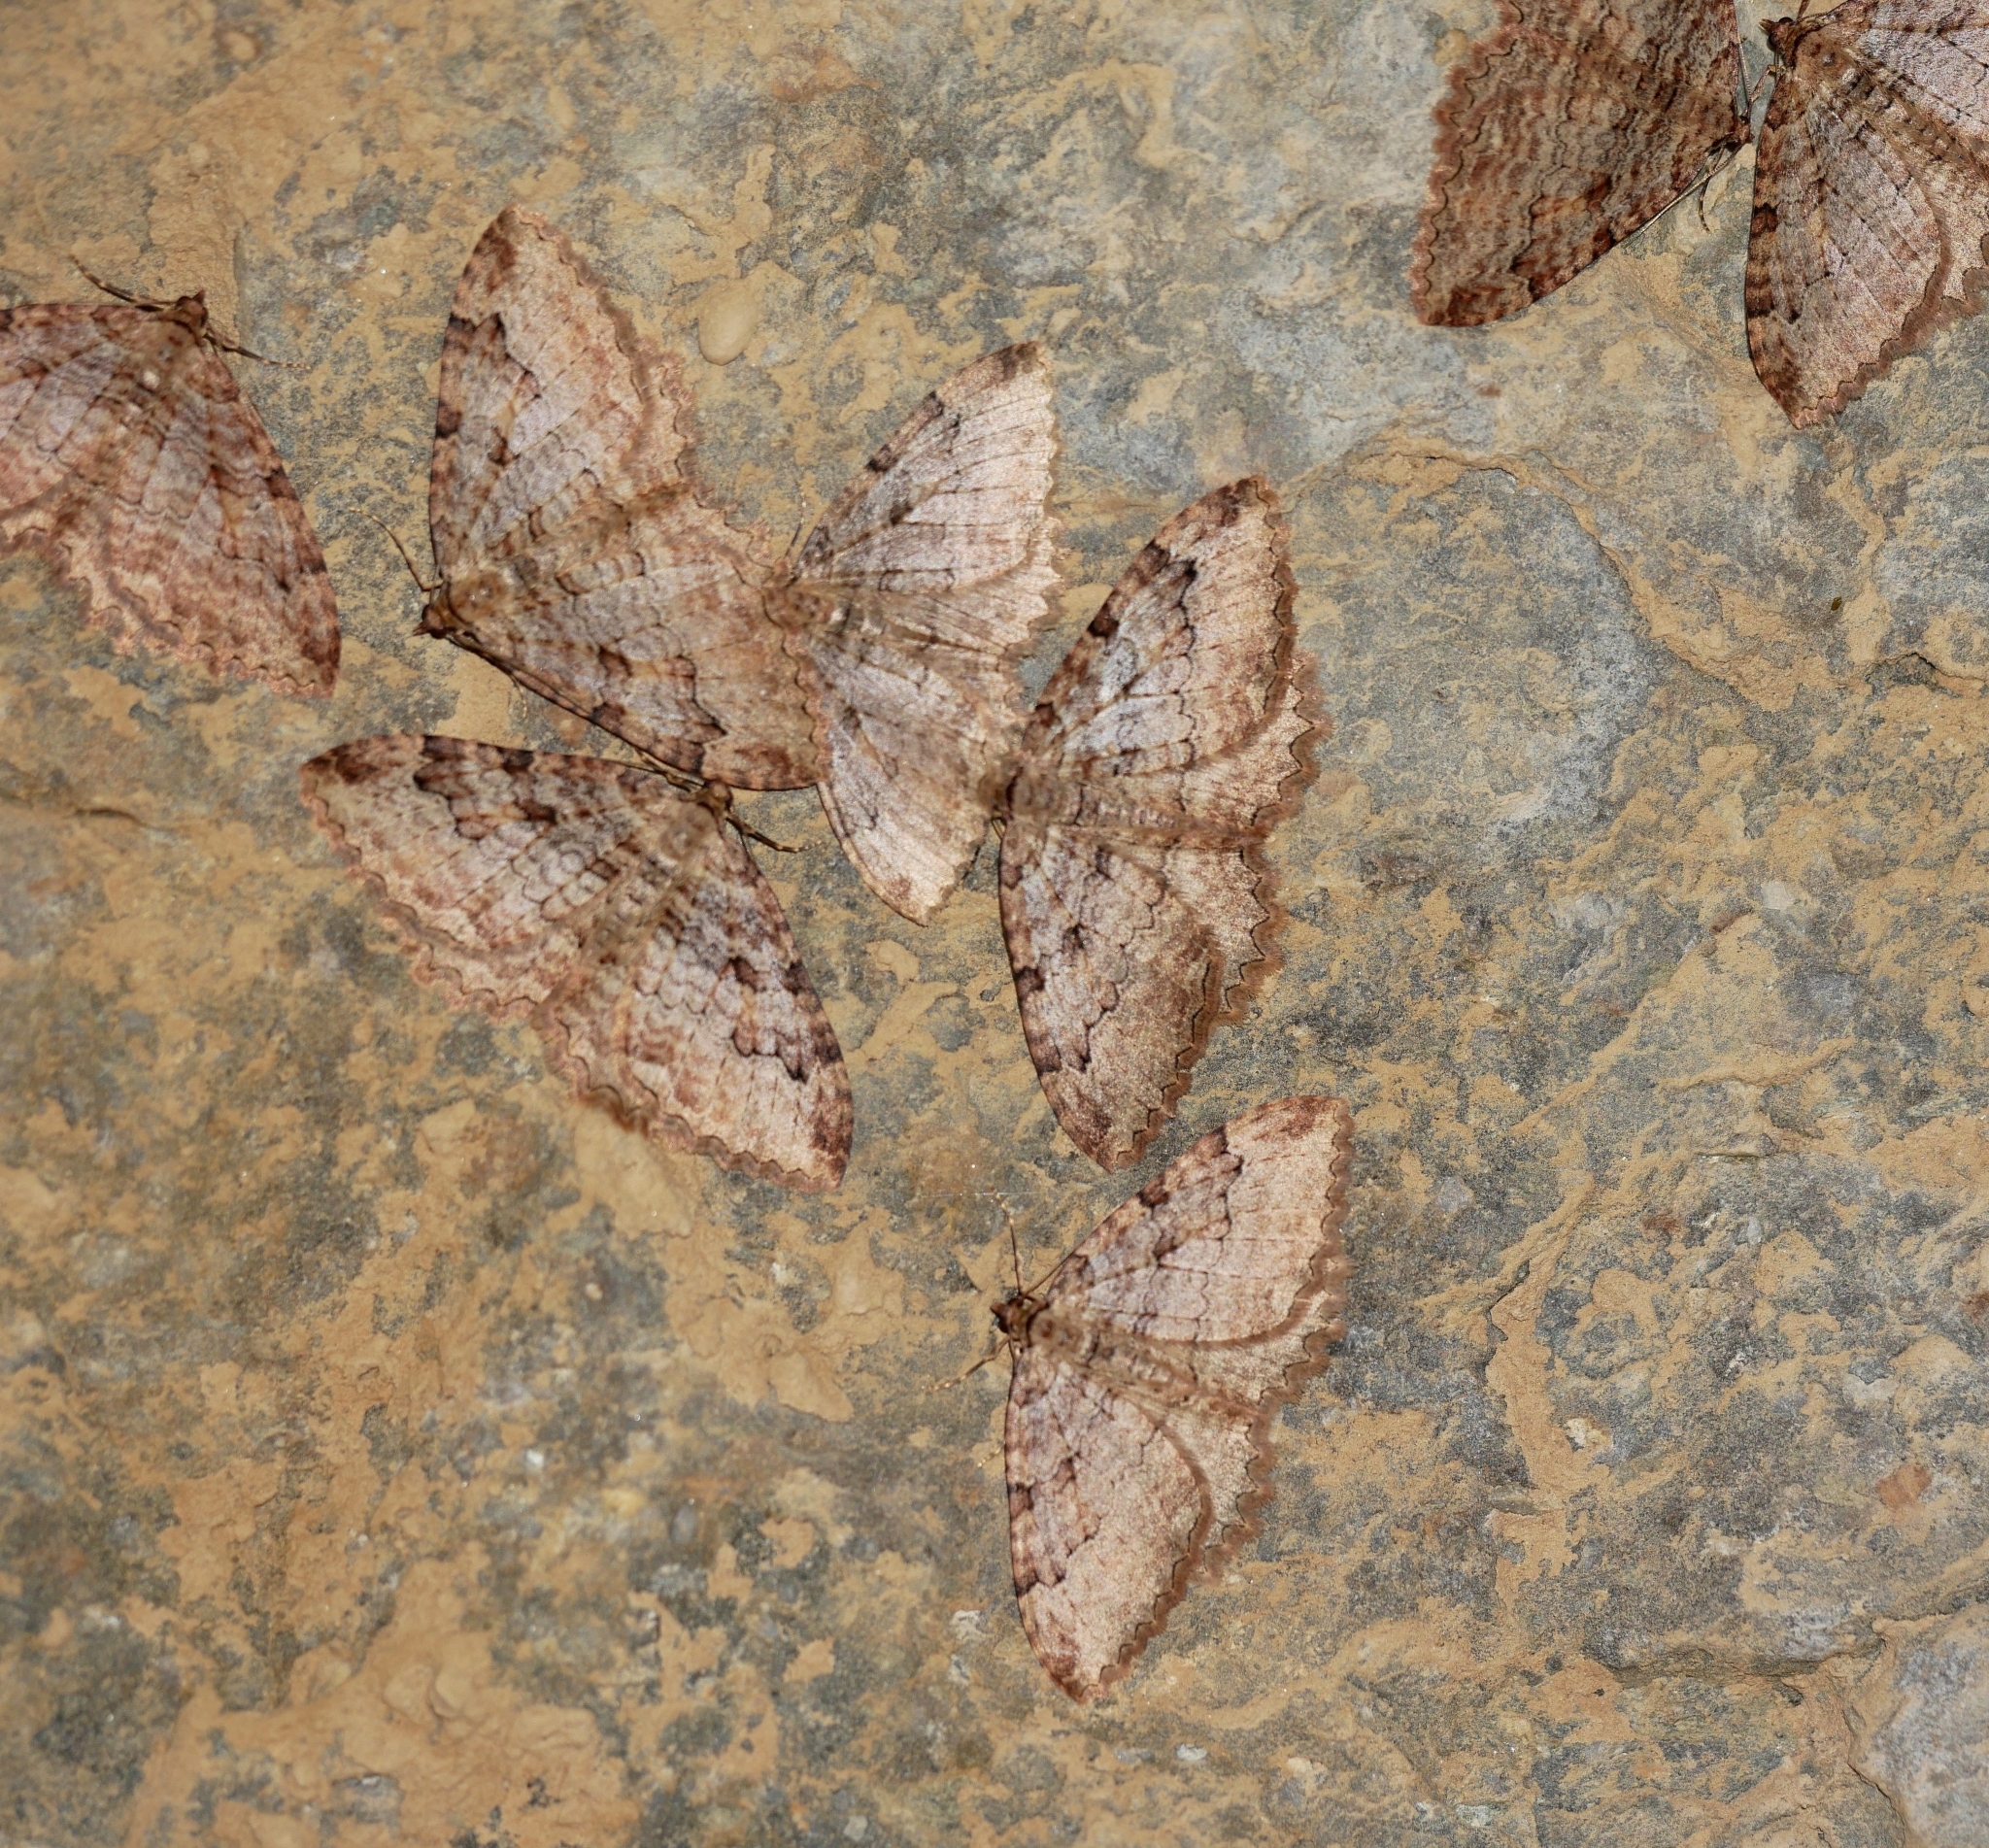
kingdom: Animalia
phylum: Arthropoda
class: Insecta
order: Lepidoptera
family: Geometridae
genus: Triphosa
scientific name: Triphosa haesitata
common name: Tissue moth
